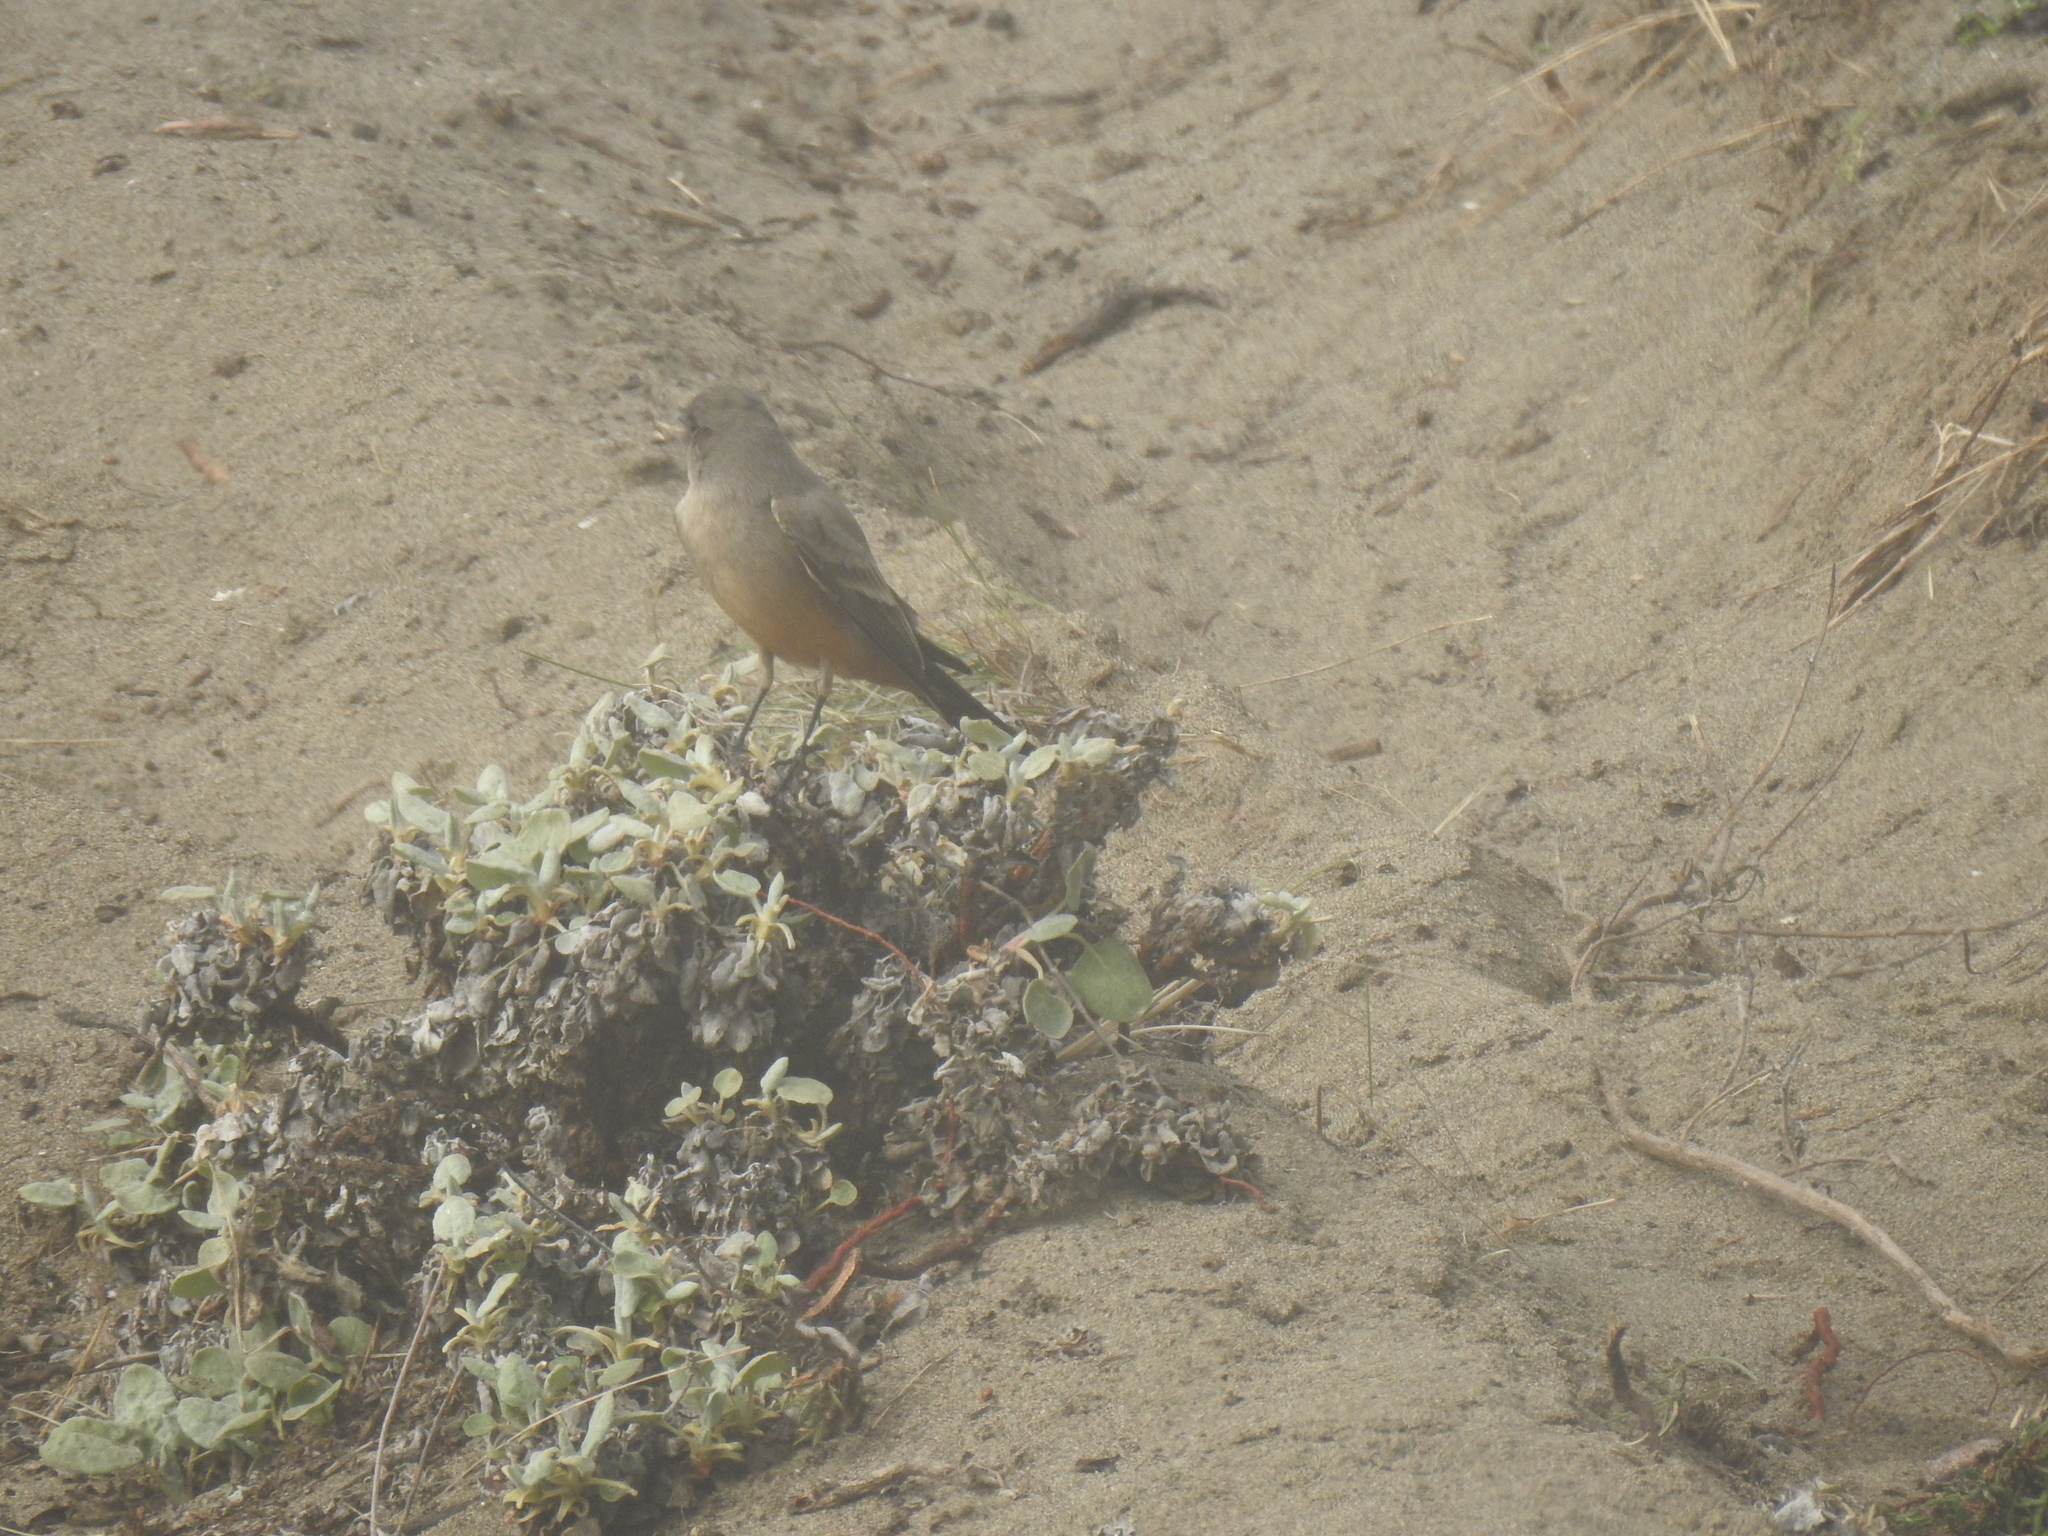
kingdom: Animalia
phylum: Chordata
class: Aves
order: Passeriformes
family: Tyrannidae
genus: Sayornis
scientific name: Sayornis saya
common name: Say's phoebe
